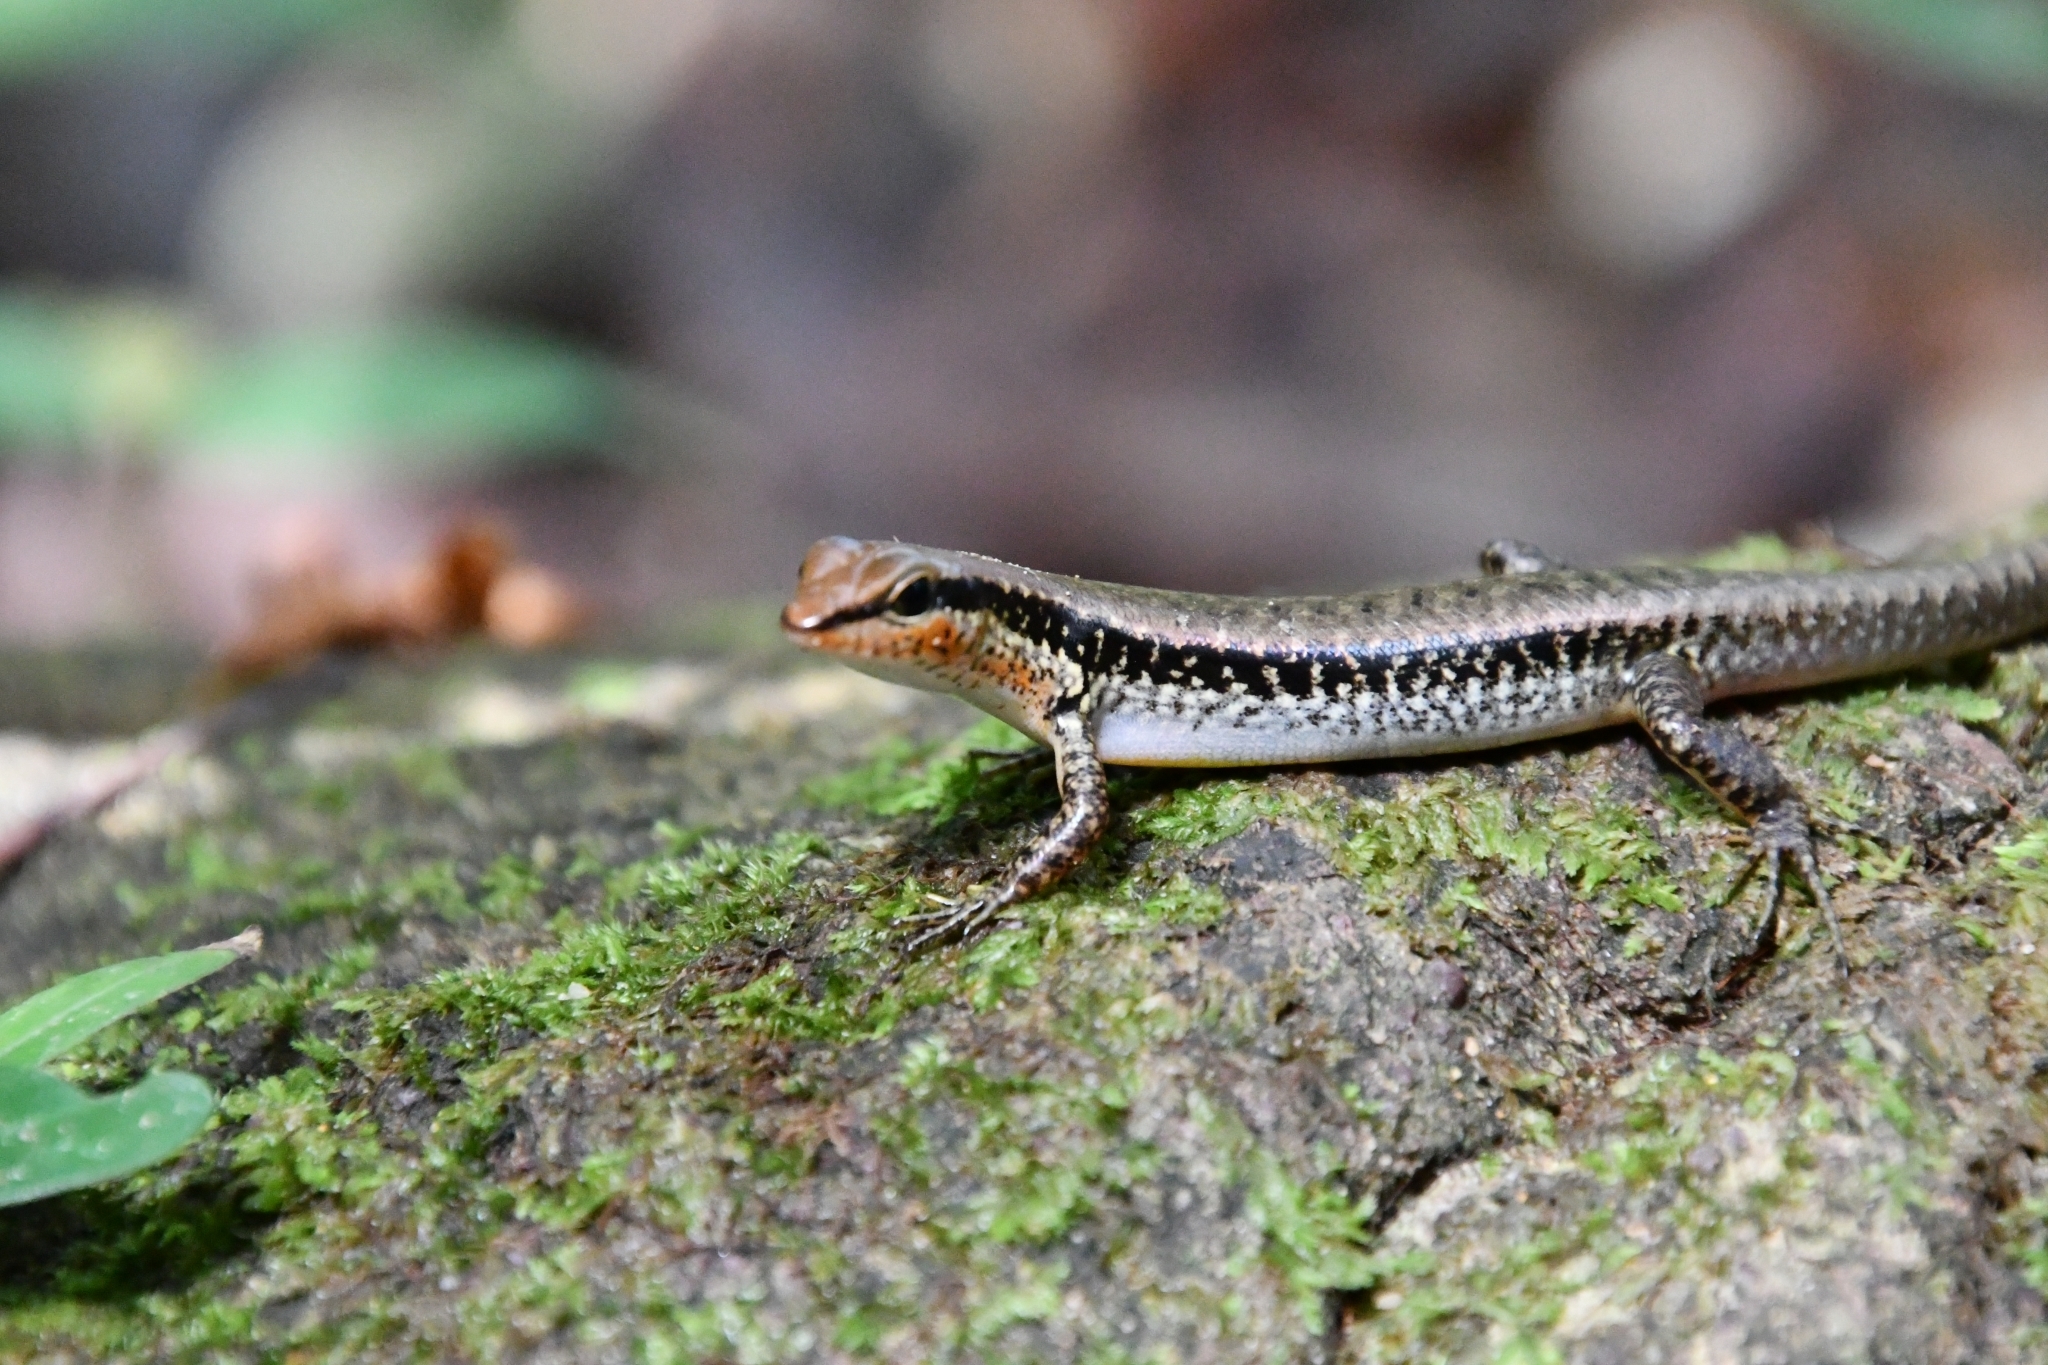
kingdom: Animalia
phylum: Chordata
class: Squamata
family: Scincidae
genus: Sphenomorphus
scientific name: Sphenomorphus maculatus
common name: Maculated forest skink
